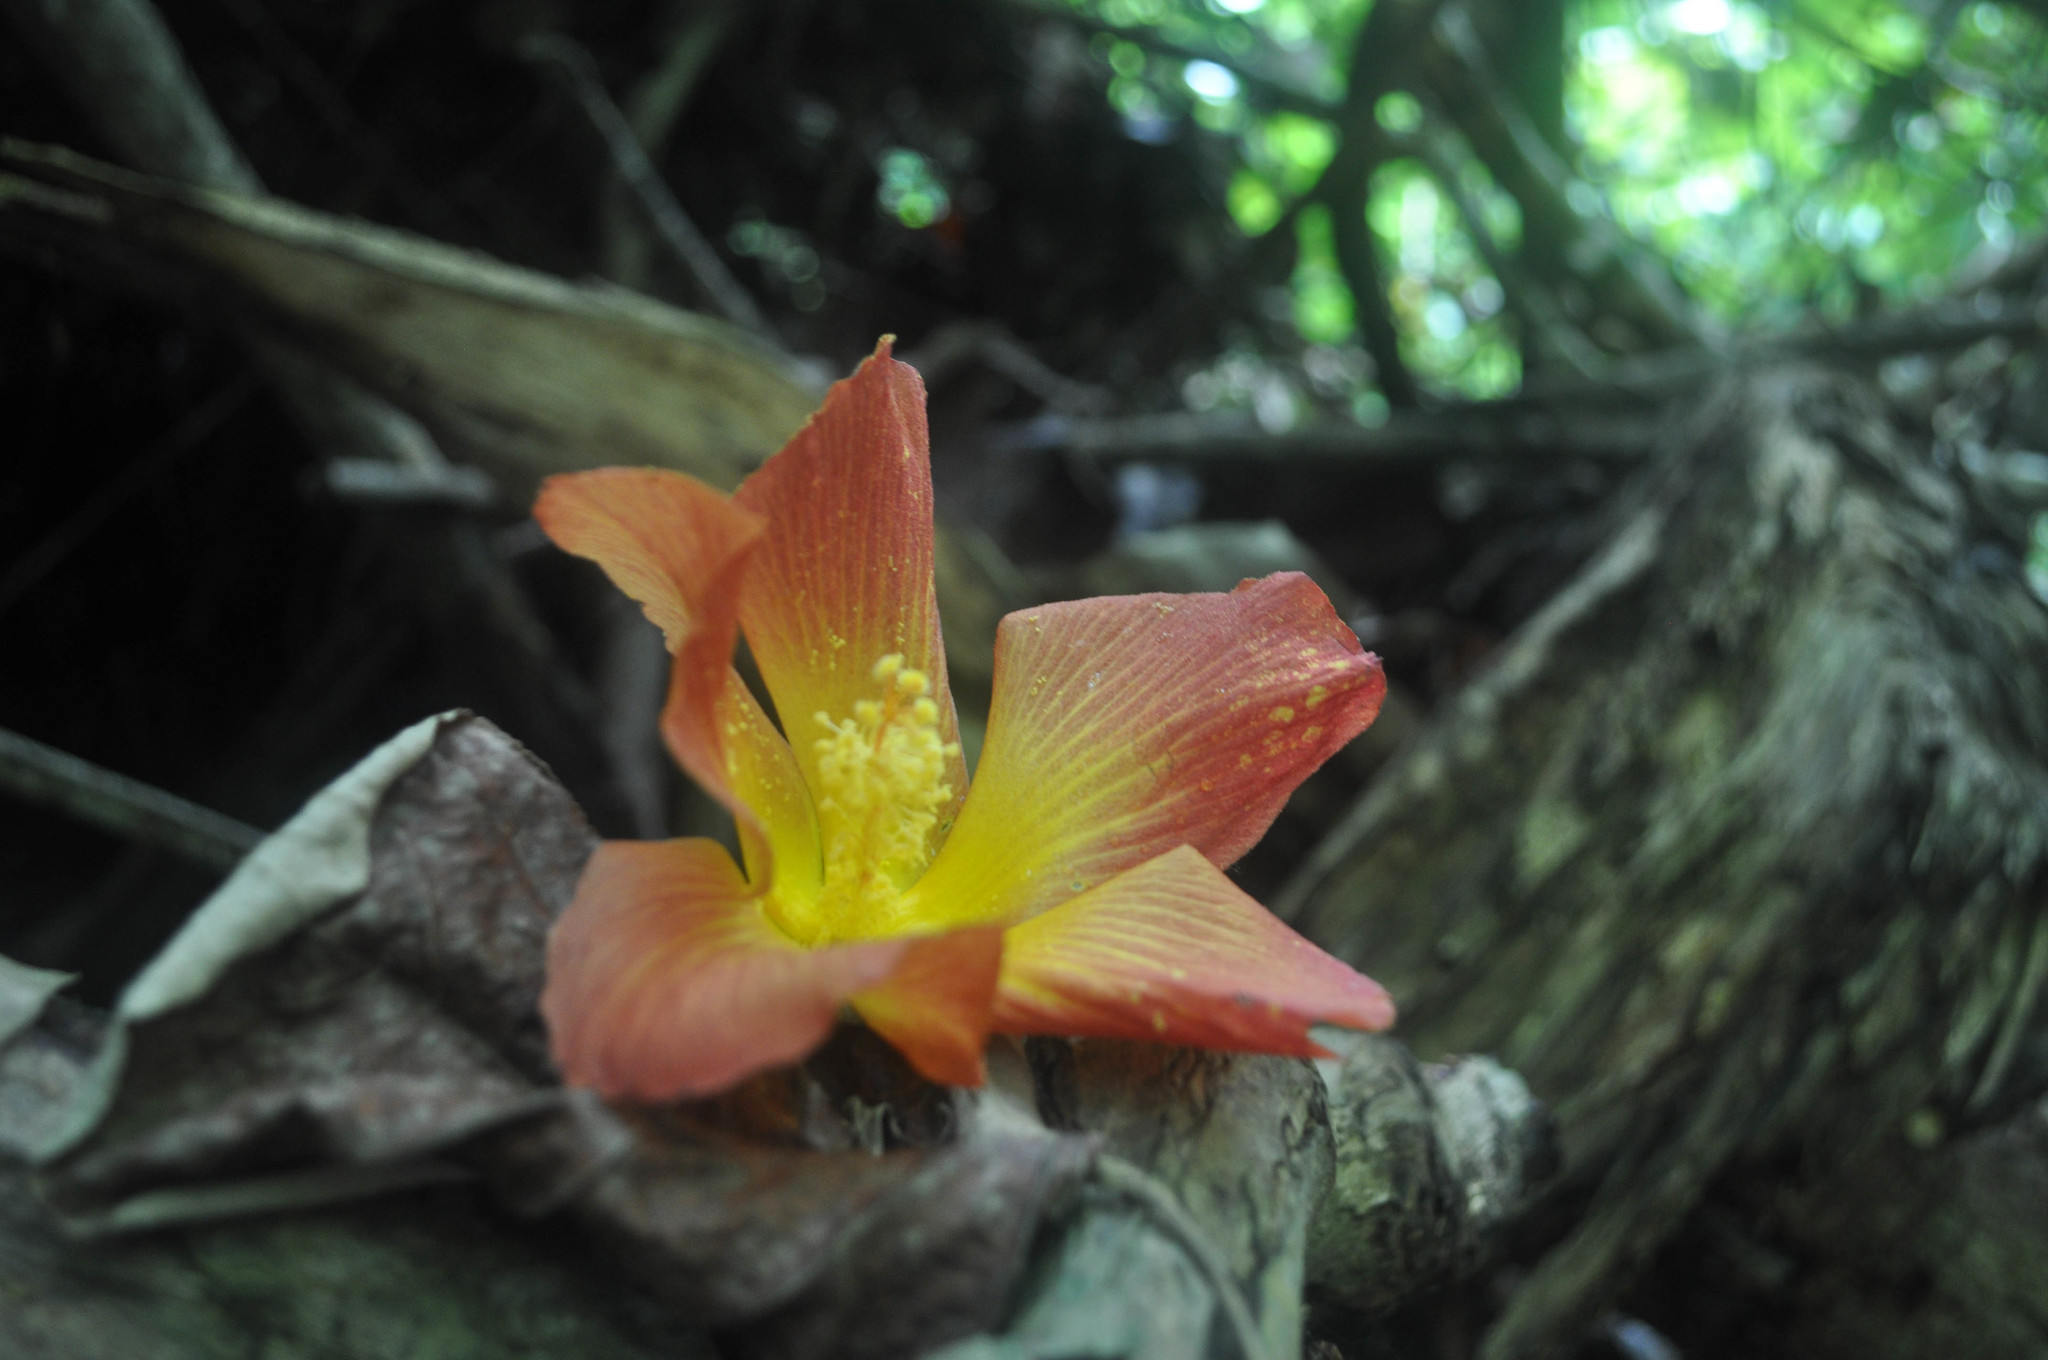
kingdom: Plantae
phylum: Tracheophyta
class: Magnoliopsida
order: Malvales
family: Malvaceae
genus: Gossypium
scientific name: Gossypium darwinii
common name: Darwin's cotton
